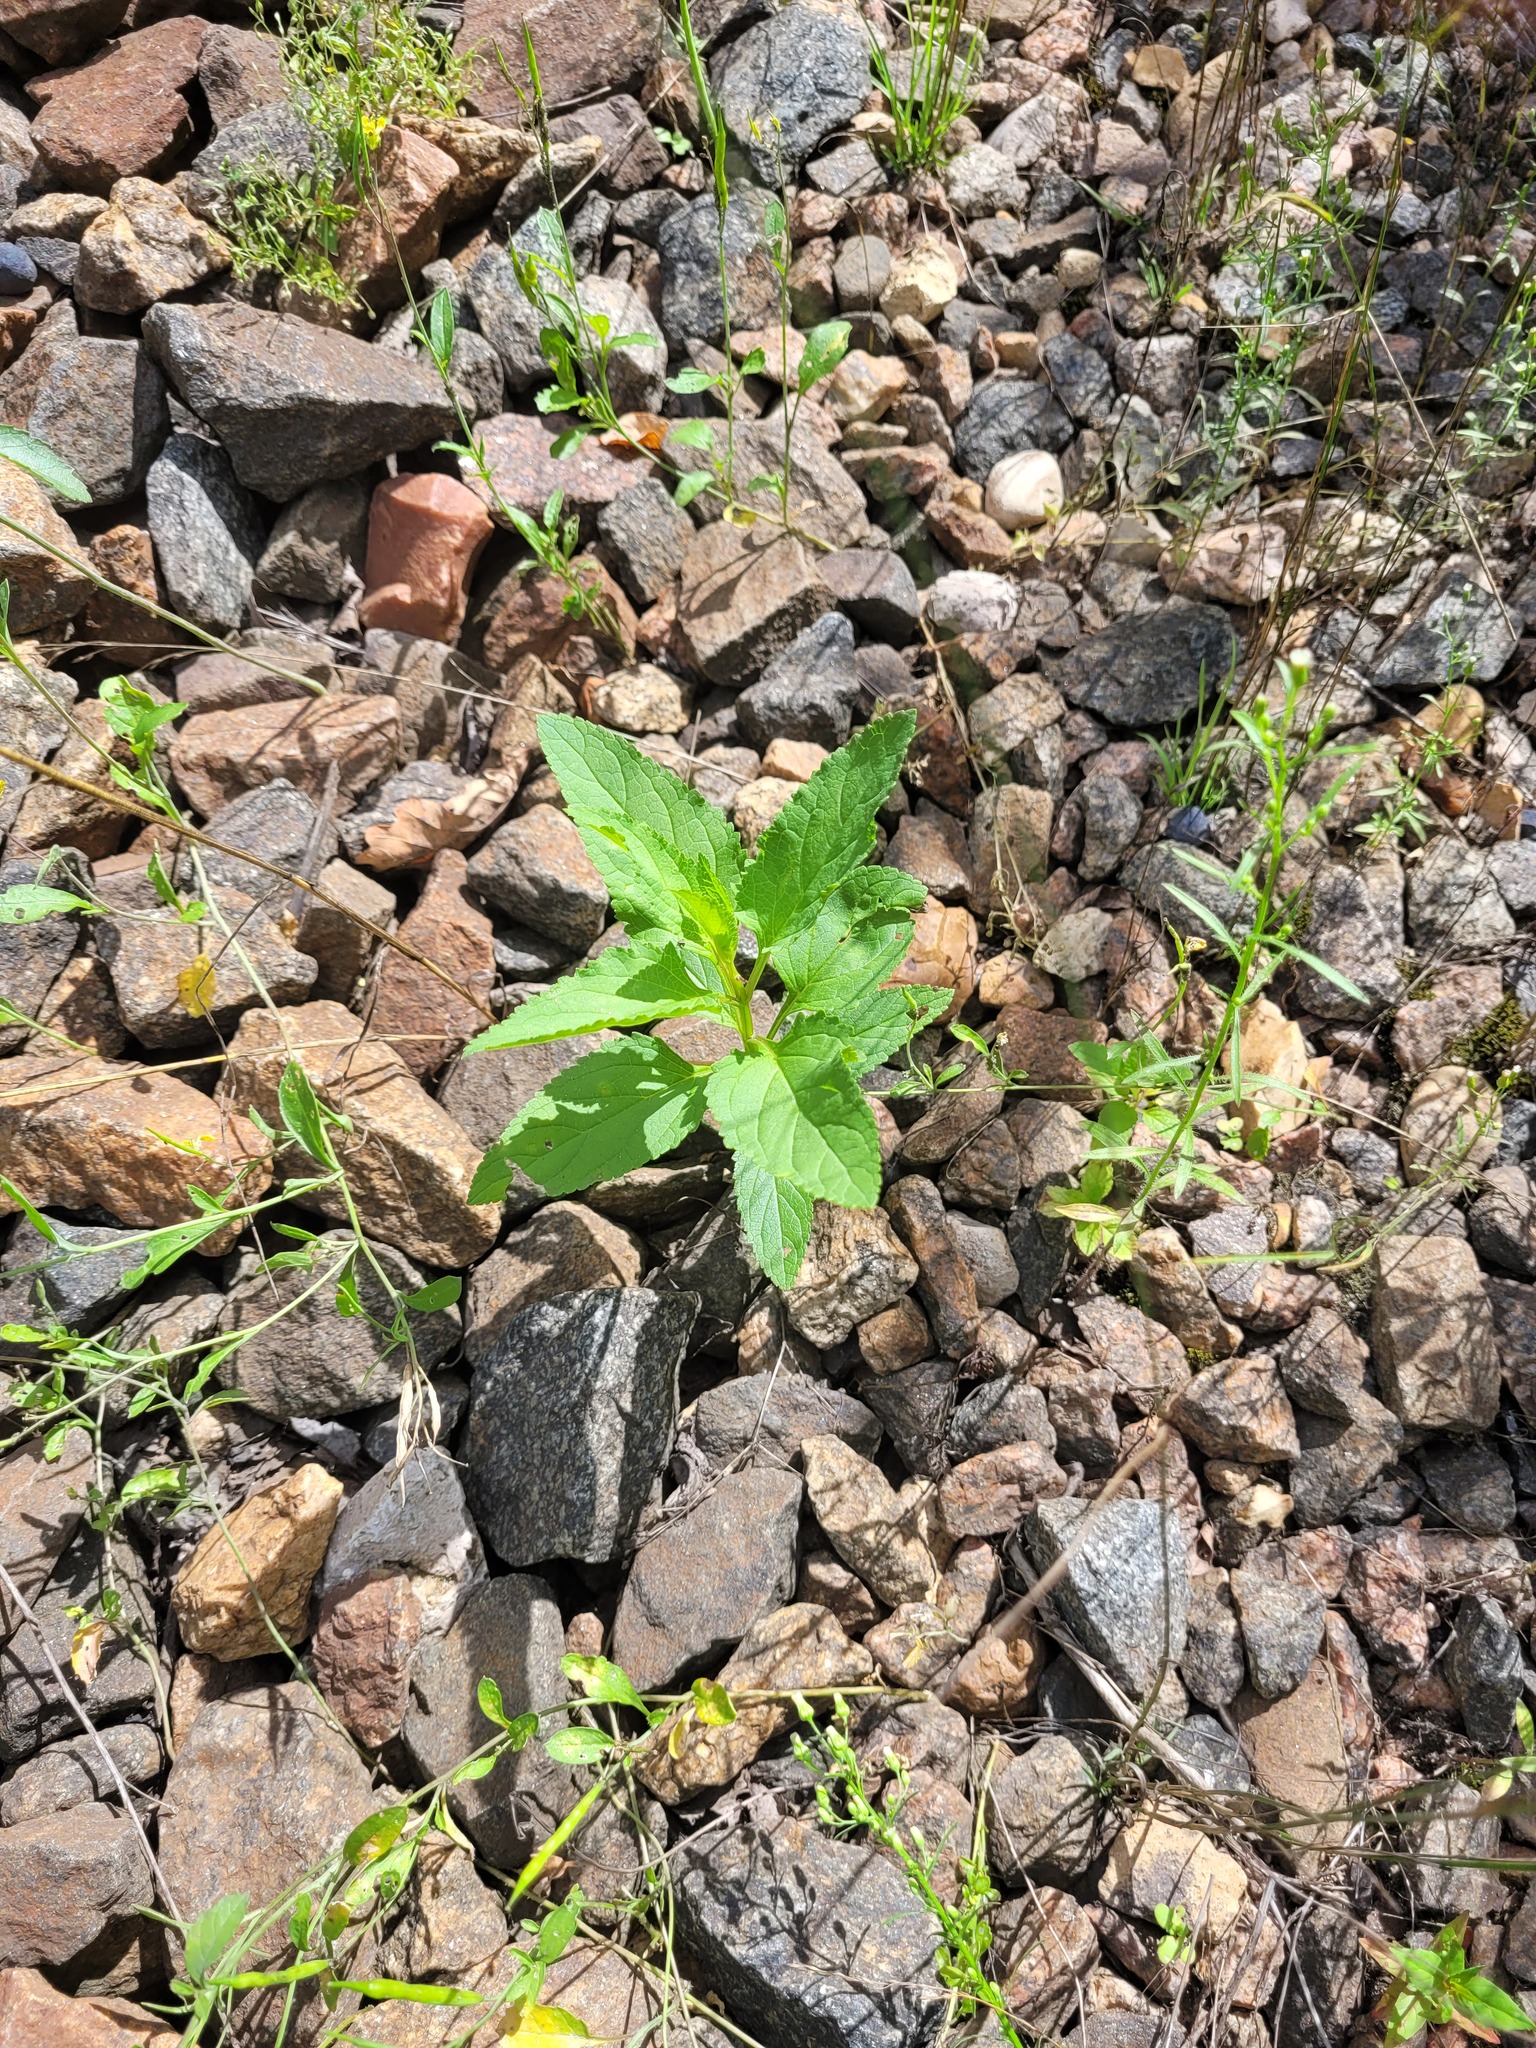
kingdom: Plantae
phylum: Tracheophyta
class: Magnoliopsida
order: Lamiales
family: Scrophulariaceae
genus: Scrophularia
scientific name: Scrophularia nodosa
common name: Common figwort
